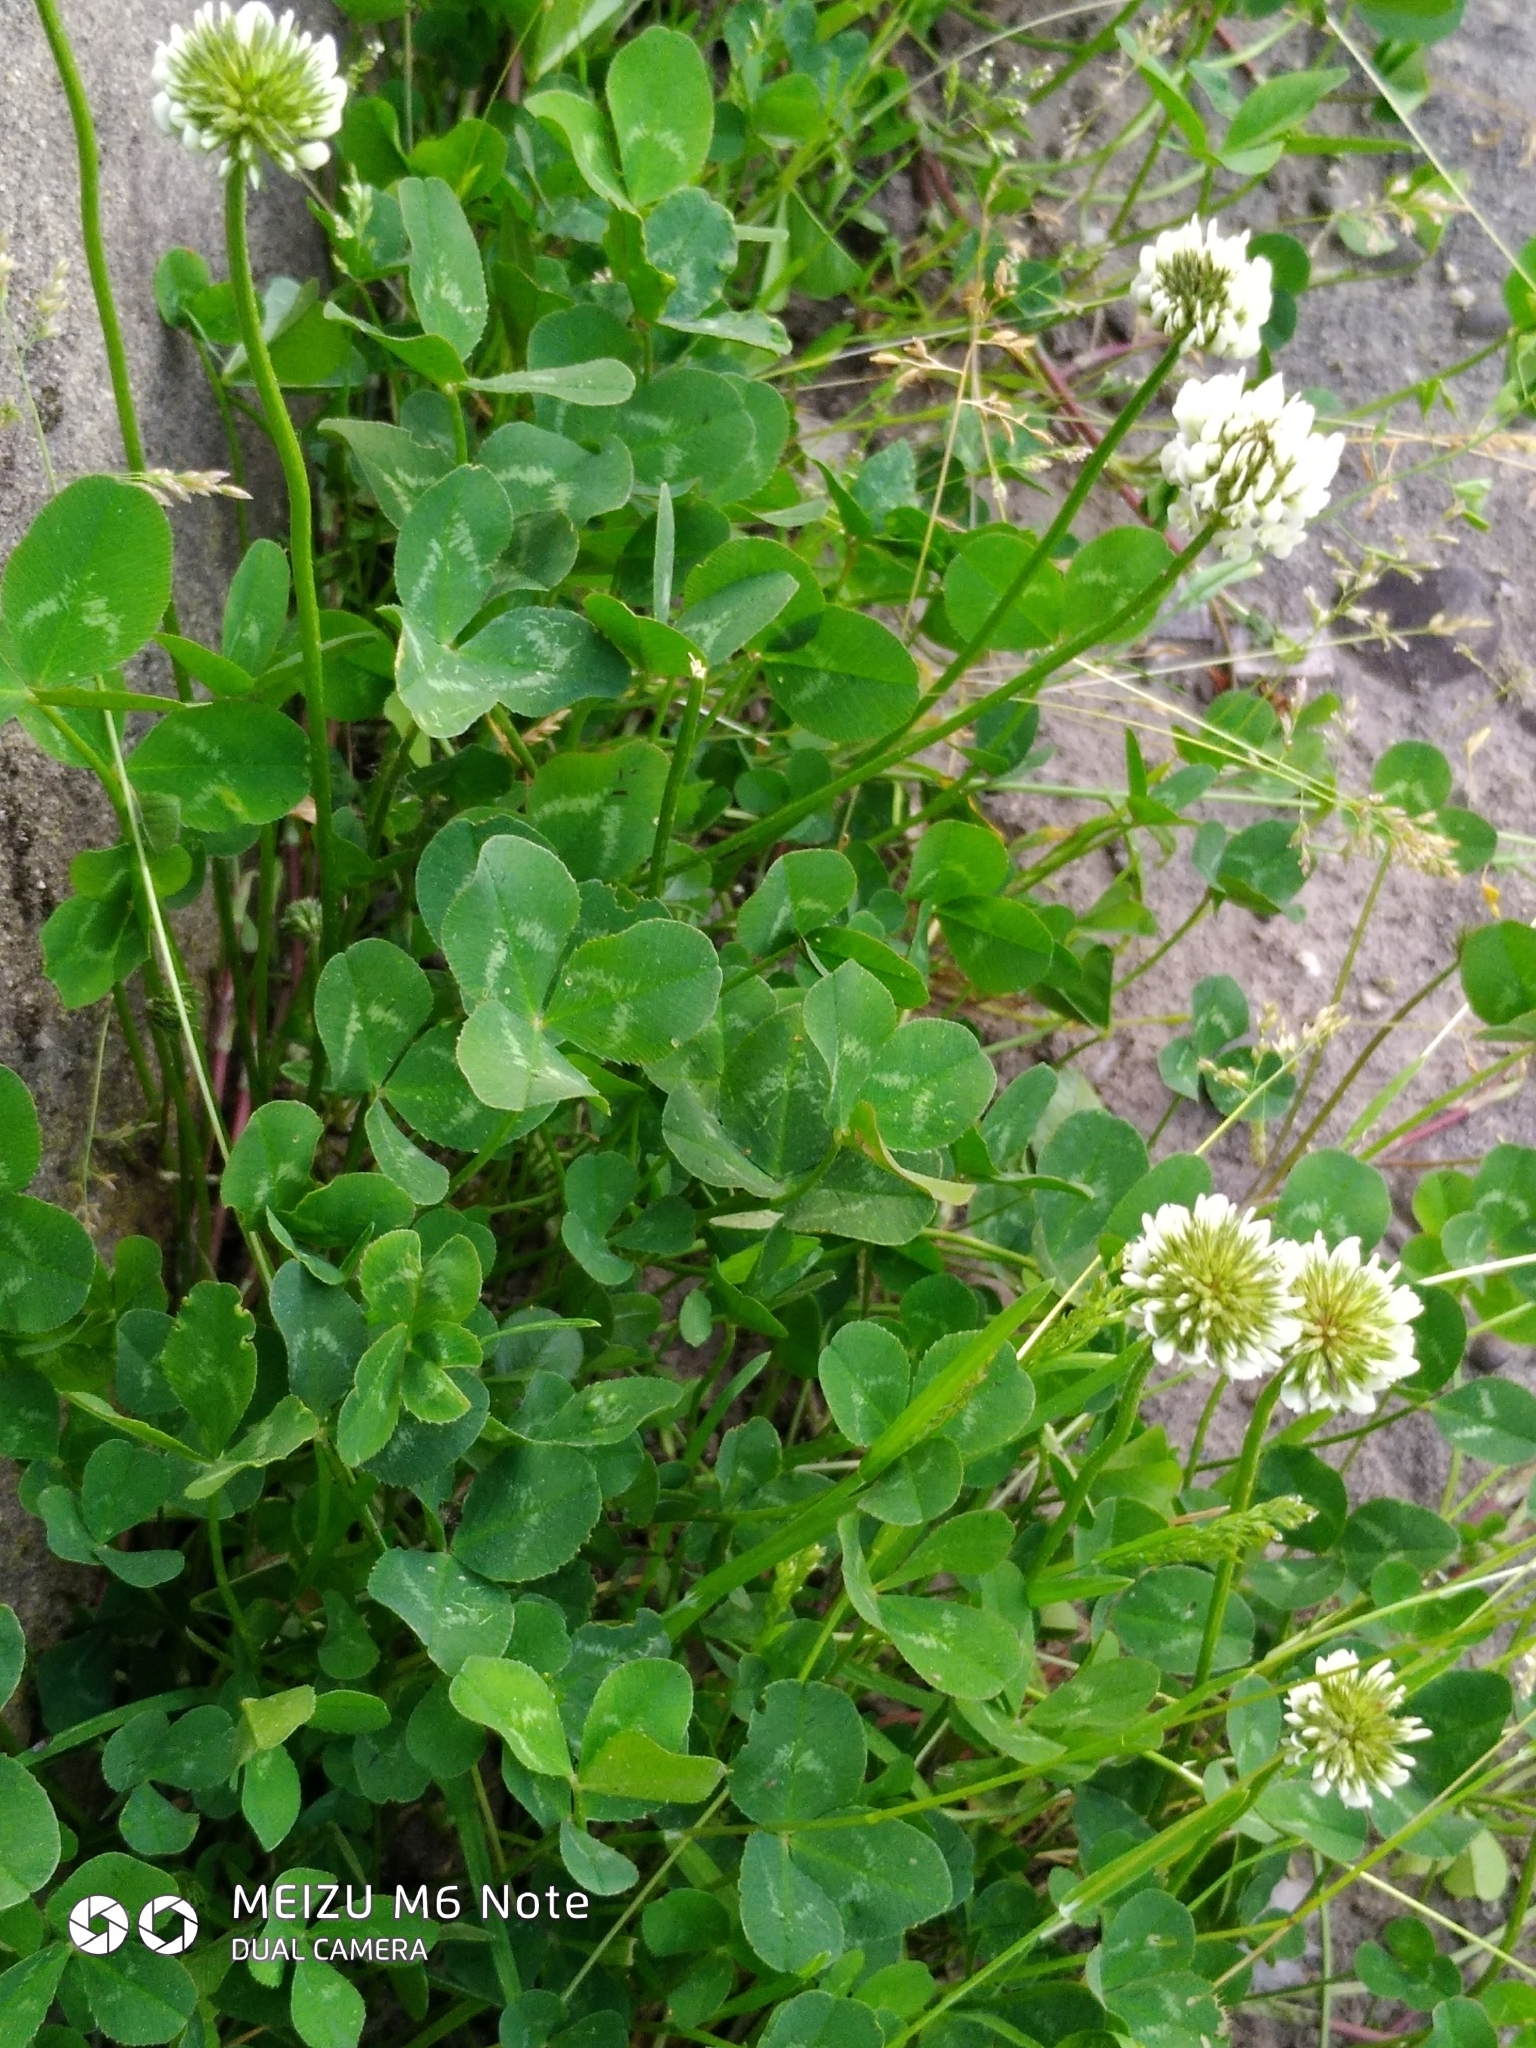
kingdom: Plantae
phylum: Tracheophyta
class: Magnoliopsida
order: Fabales
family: Fabaceae
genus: Trifolium
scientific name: Trifolium repens
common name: White clover
